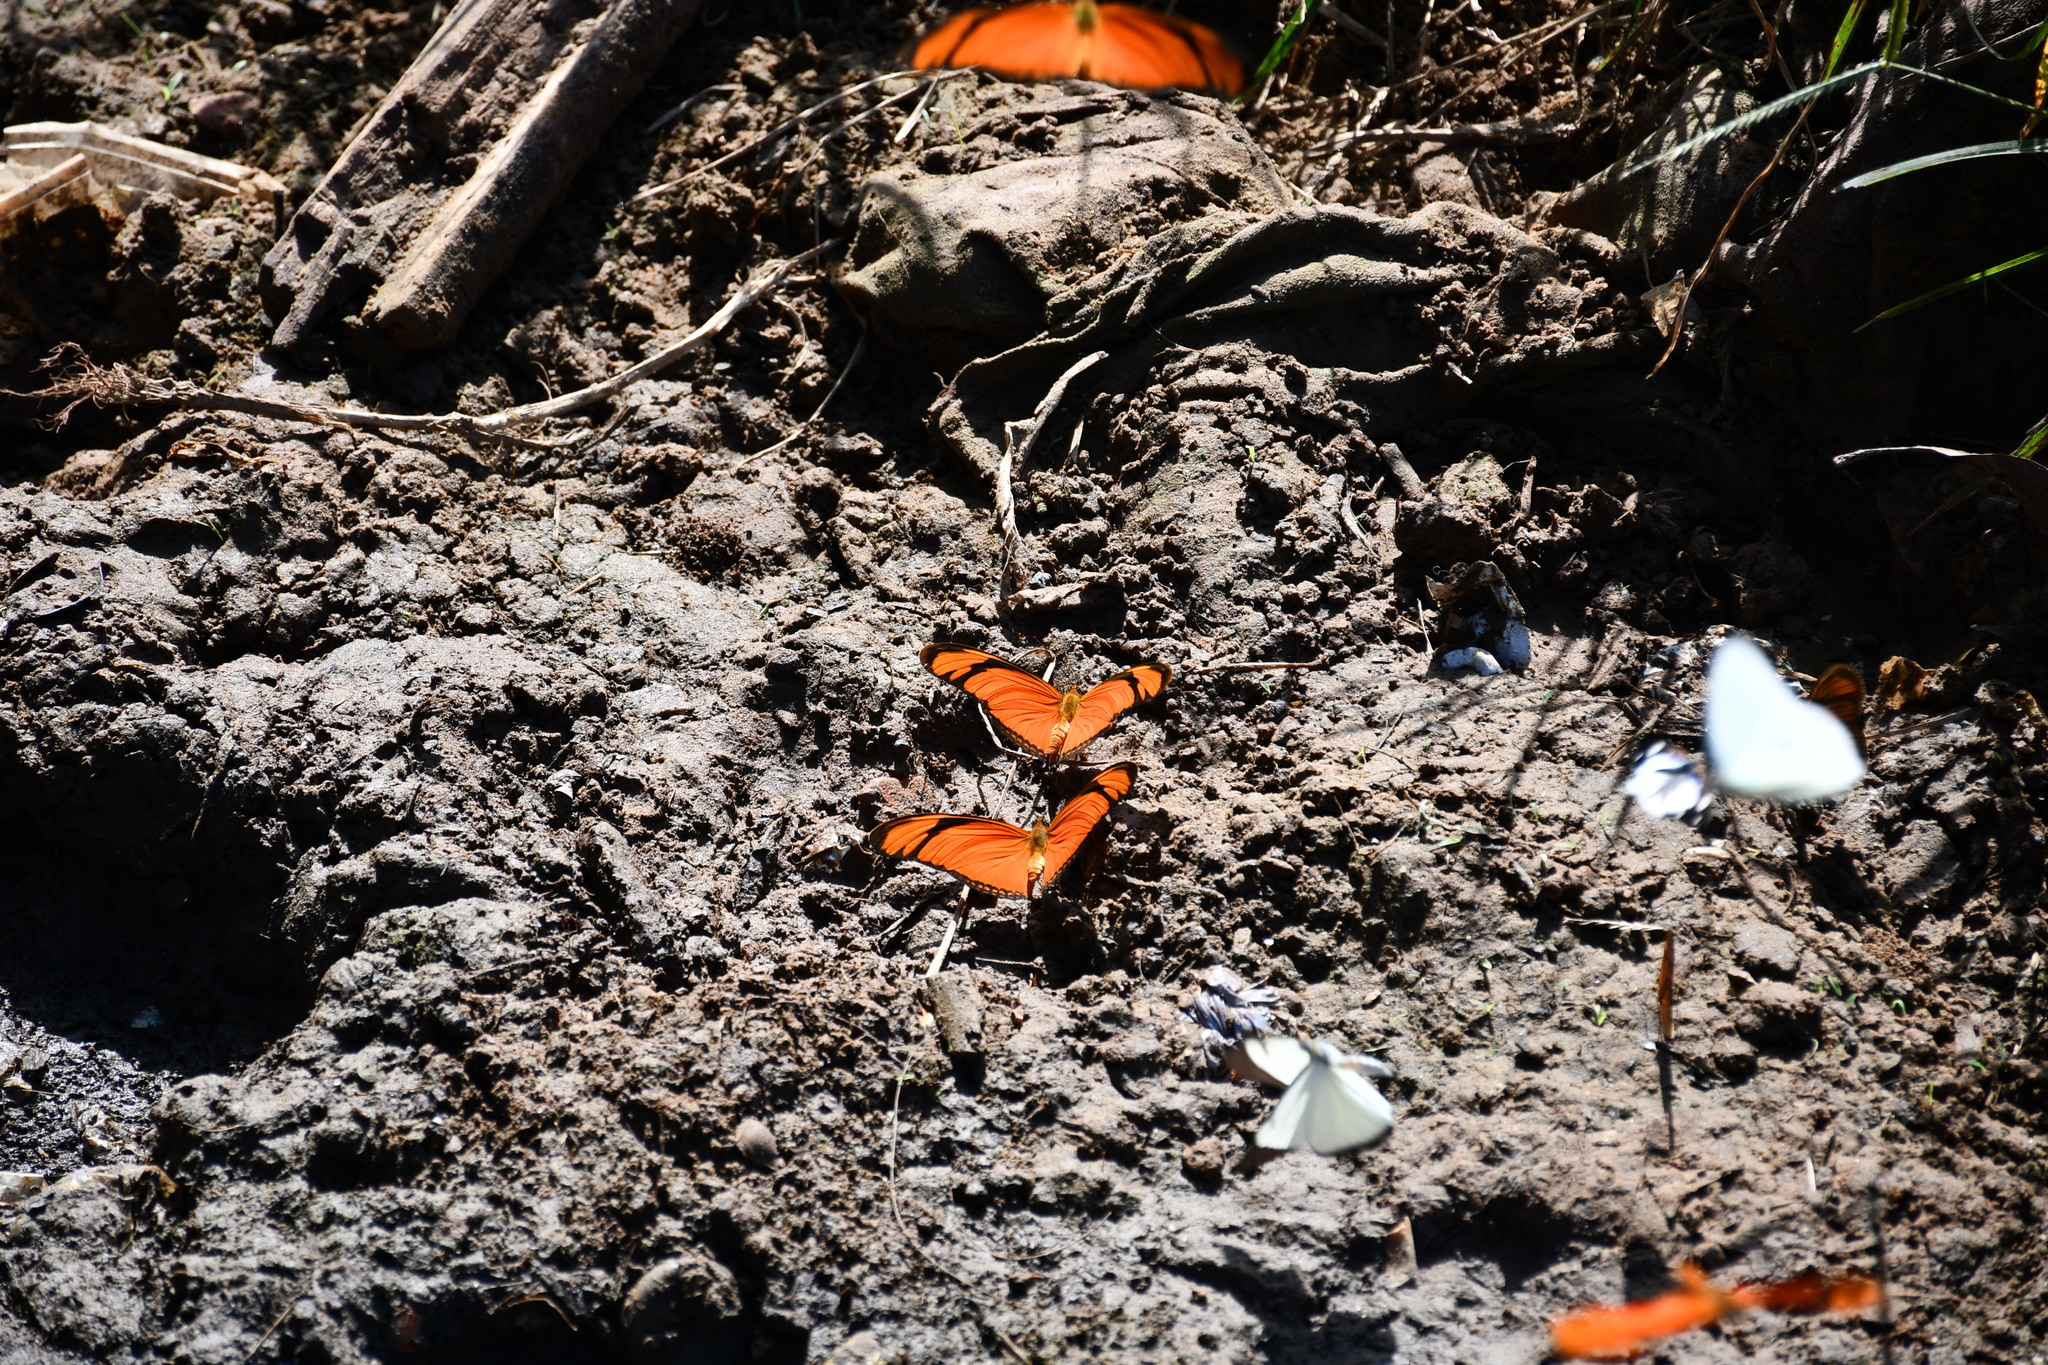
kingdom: Animalia
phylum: Arthropoda
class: Insecta
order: Lepidoptera
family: Nymphalidae
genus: Dryas
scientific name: Dryas iulia
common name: Flambeau
